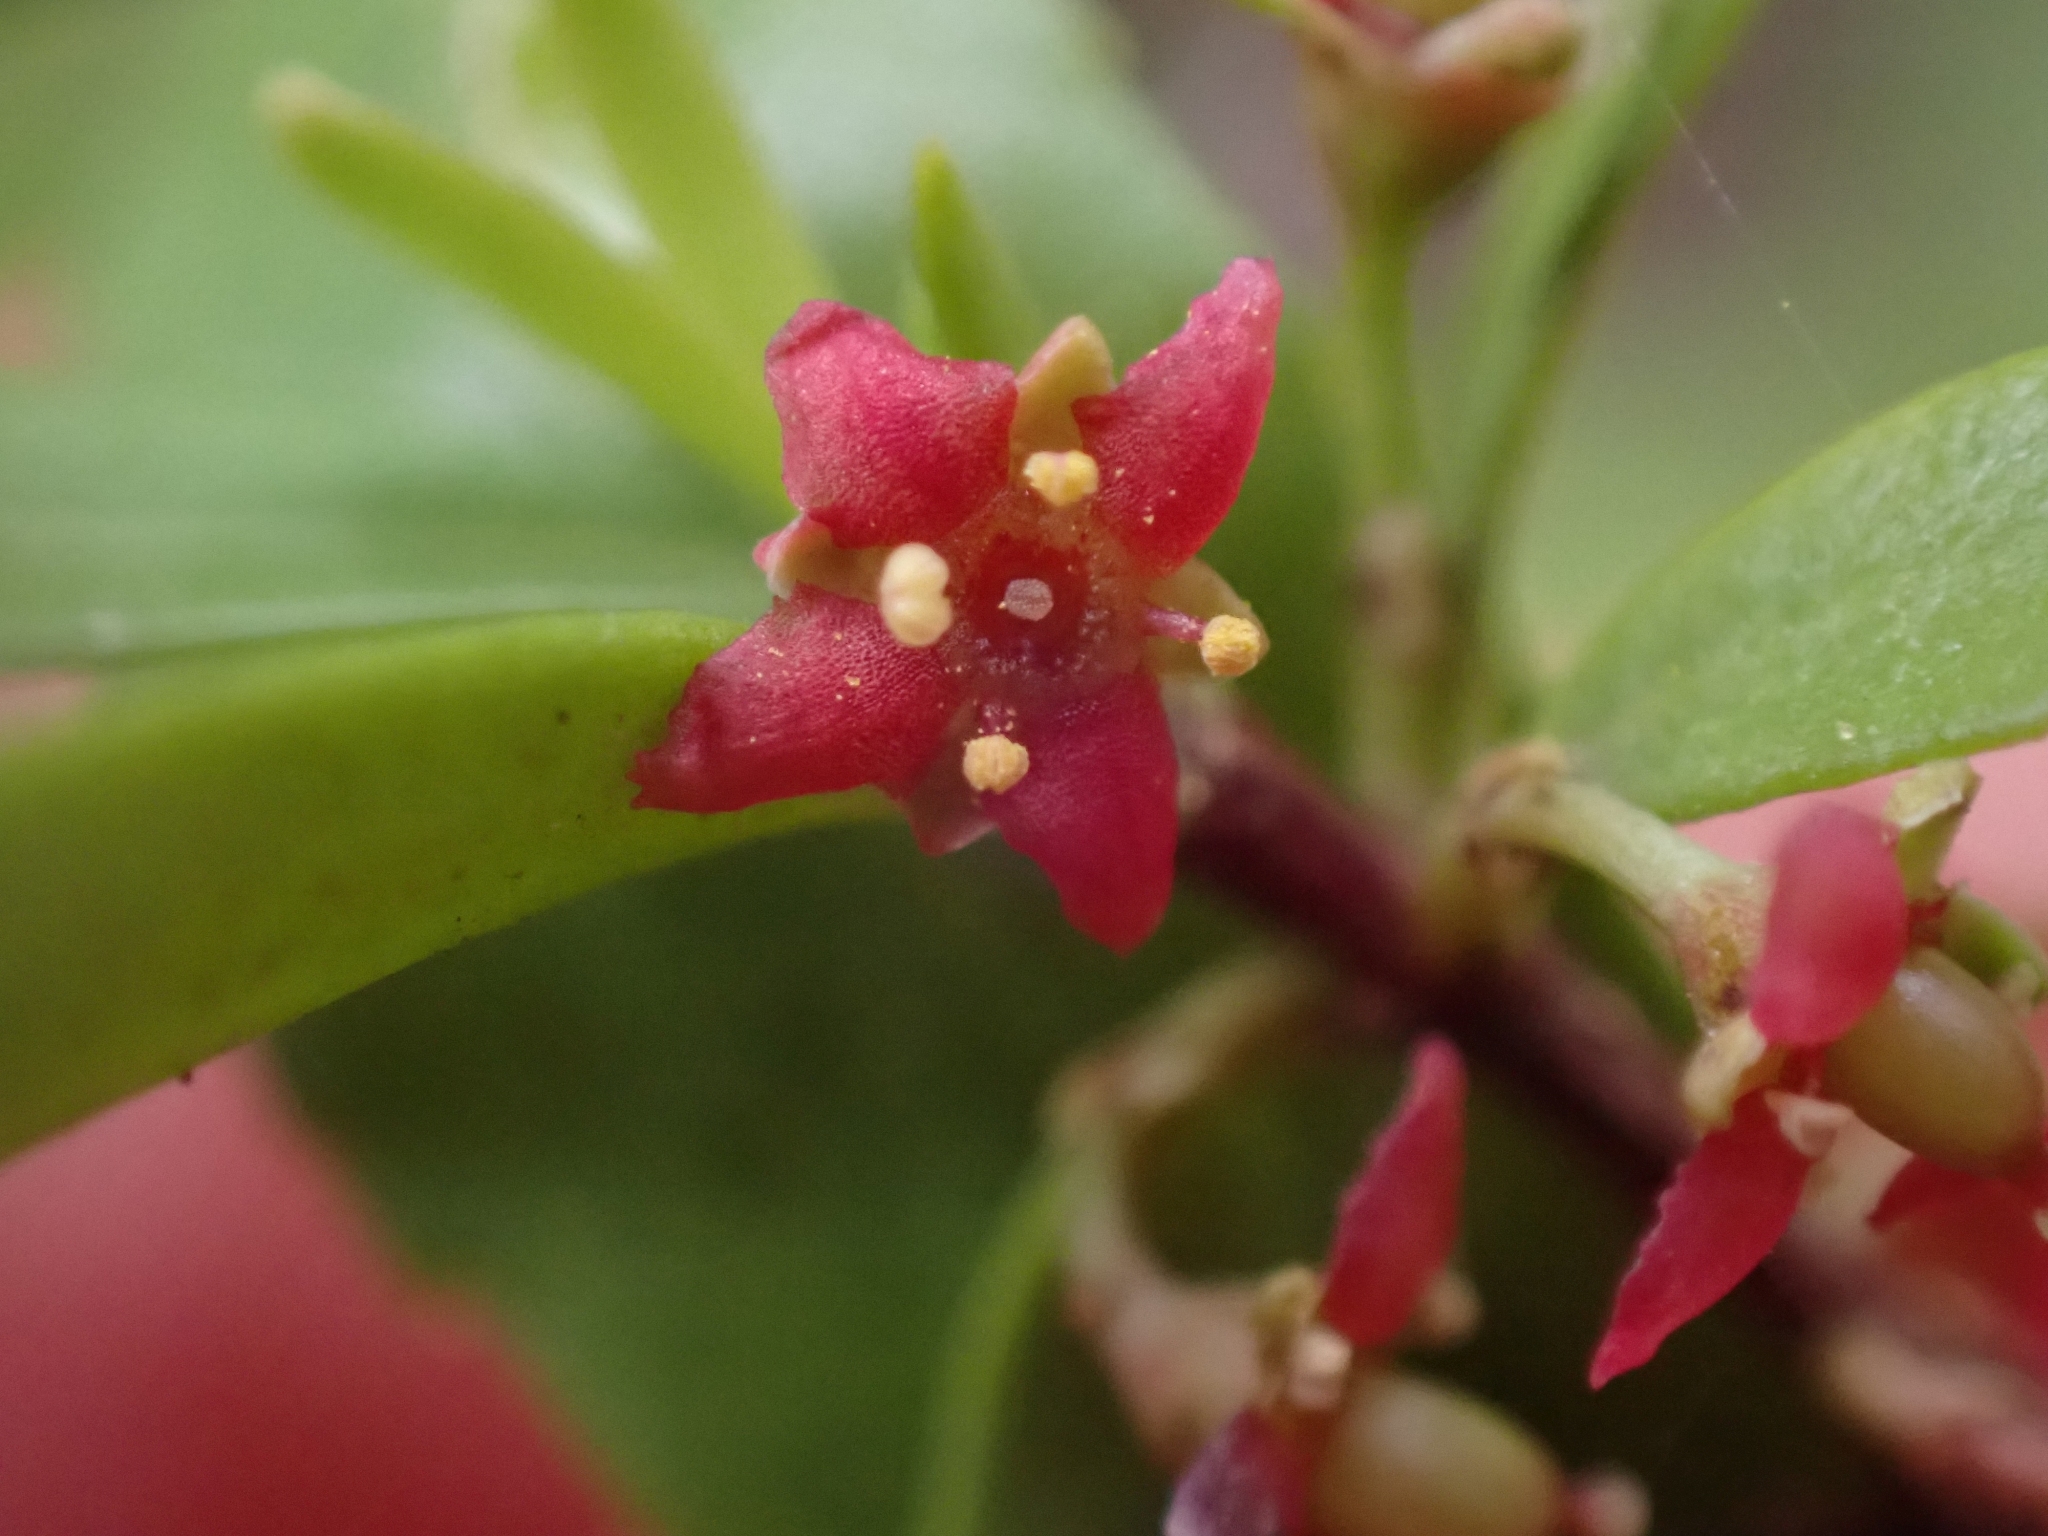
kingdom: Plantae
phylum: Tracheophyta
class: Magnoliopsida
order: Celastrales
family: Celastraceae
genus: Paxistima
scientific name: Paxistima myrsinites
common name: Mountain-lover
